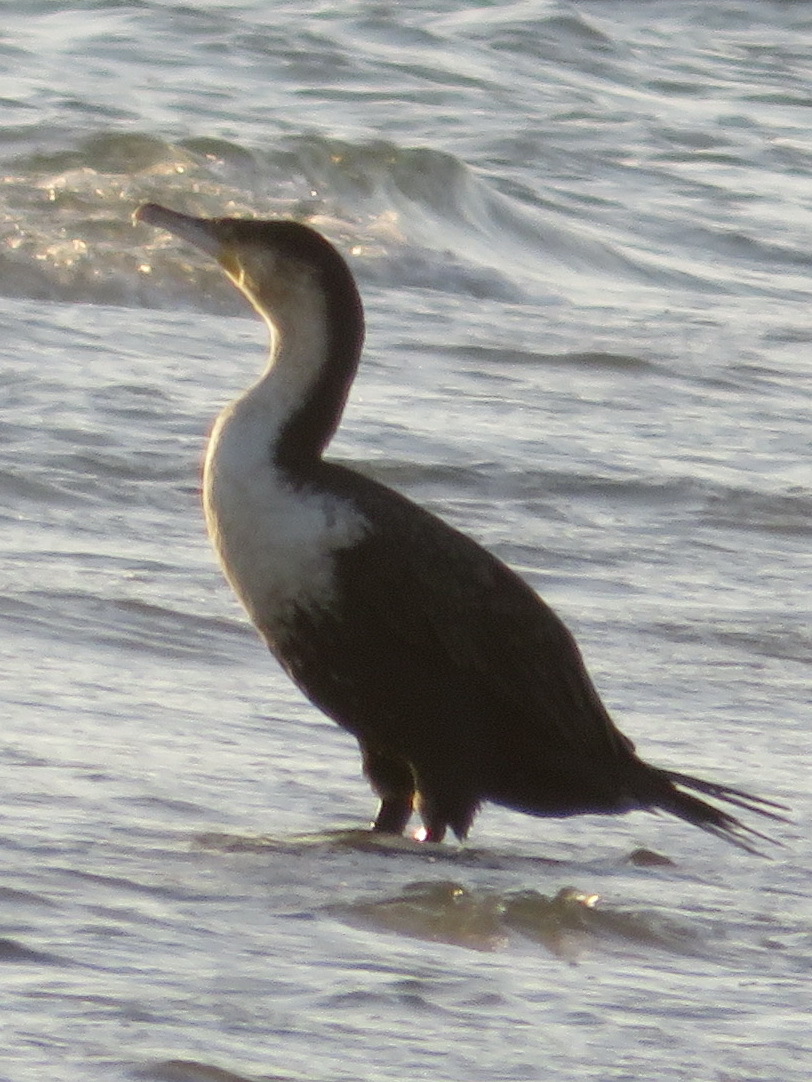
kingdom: Animalia
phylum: Chordata
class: Aves
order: Suliformes
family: Phalacrocoracidae
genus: Phalacrocorax
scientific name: Phalacrocorax carbo
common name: Great cormorant
